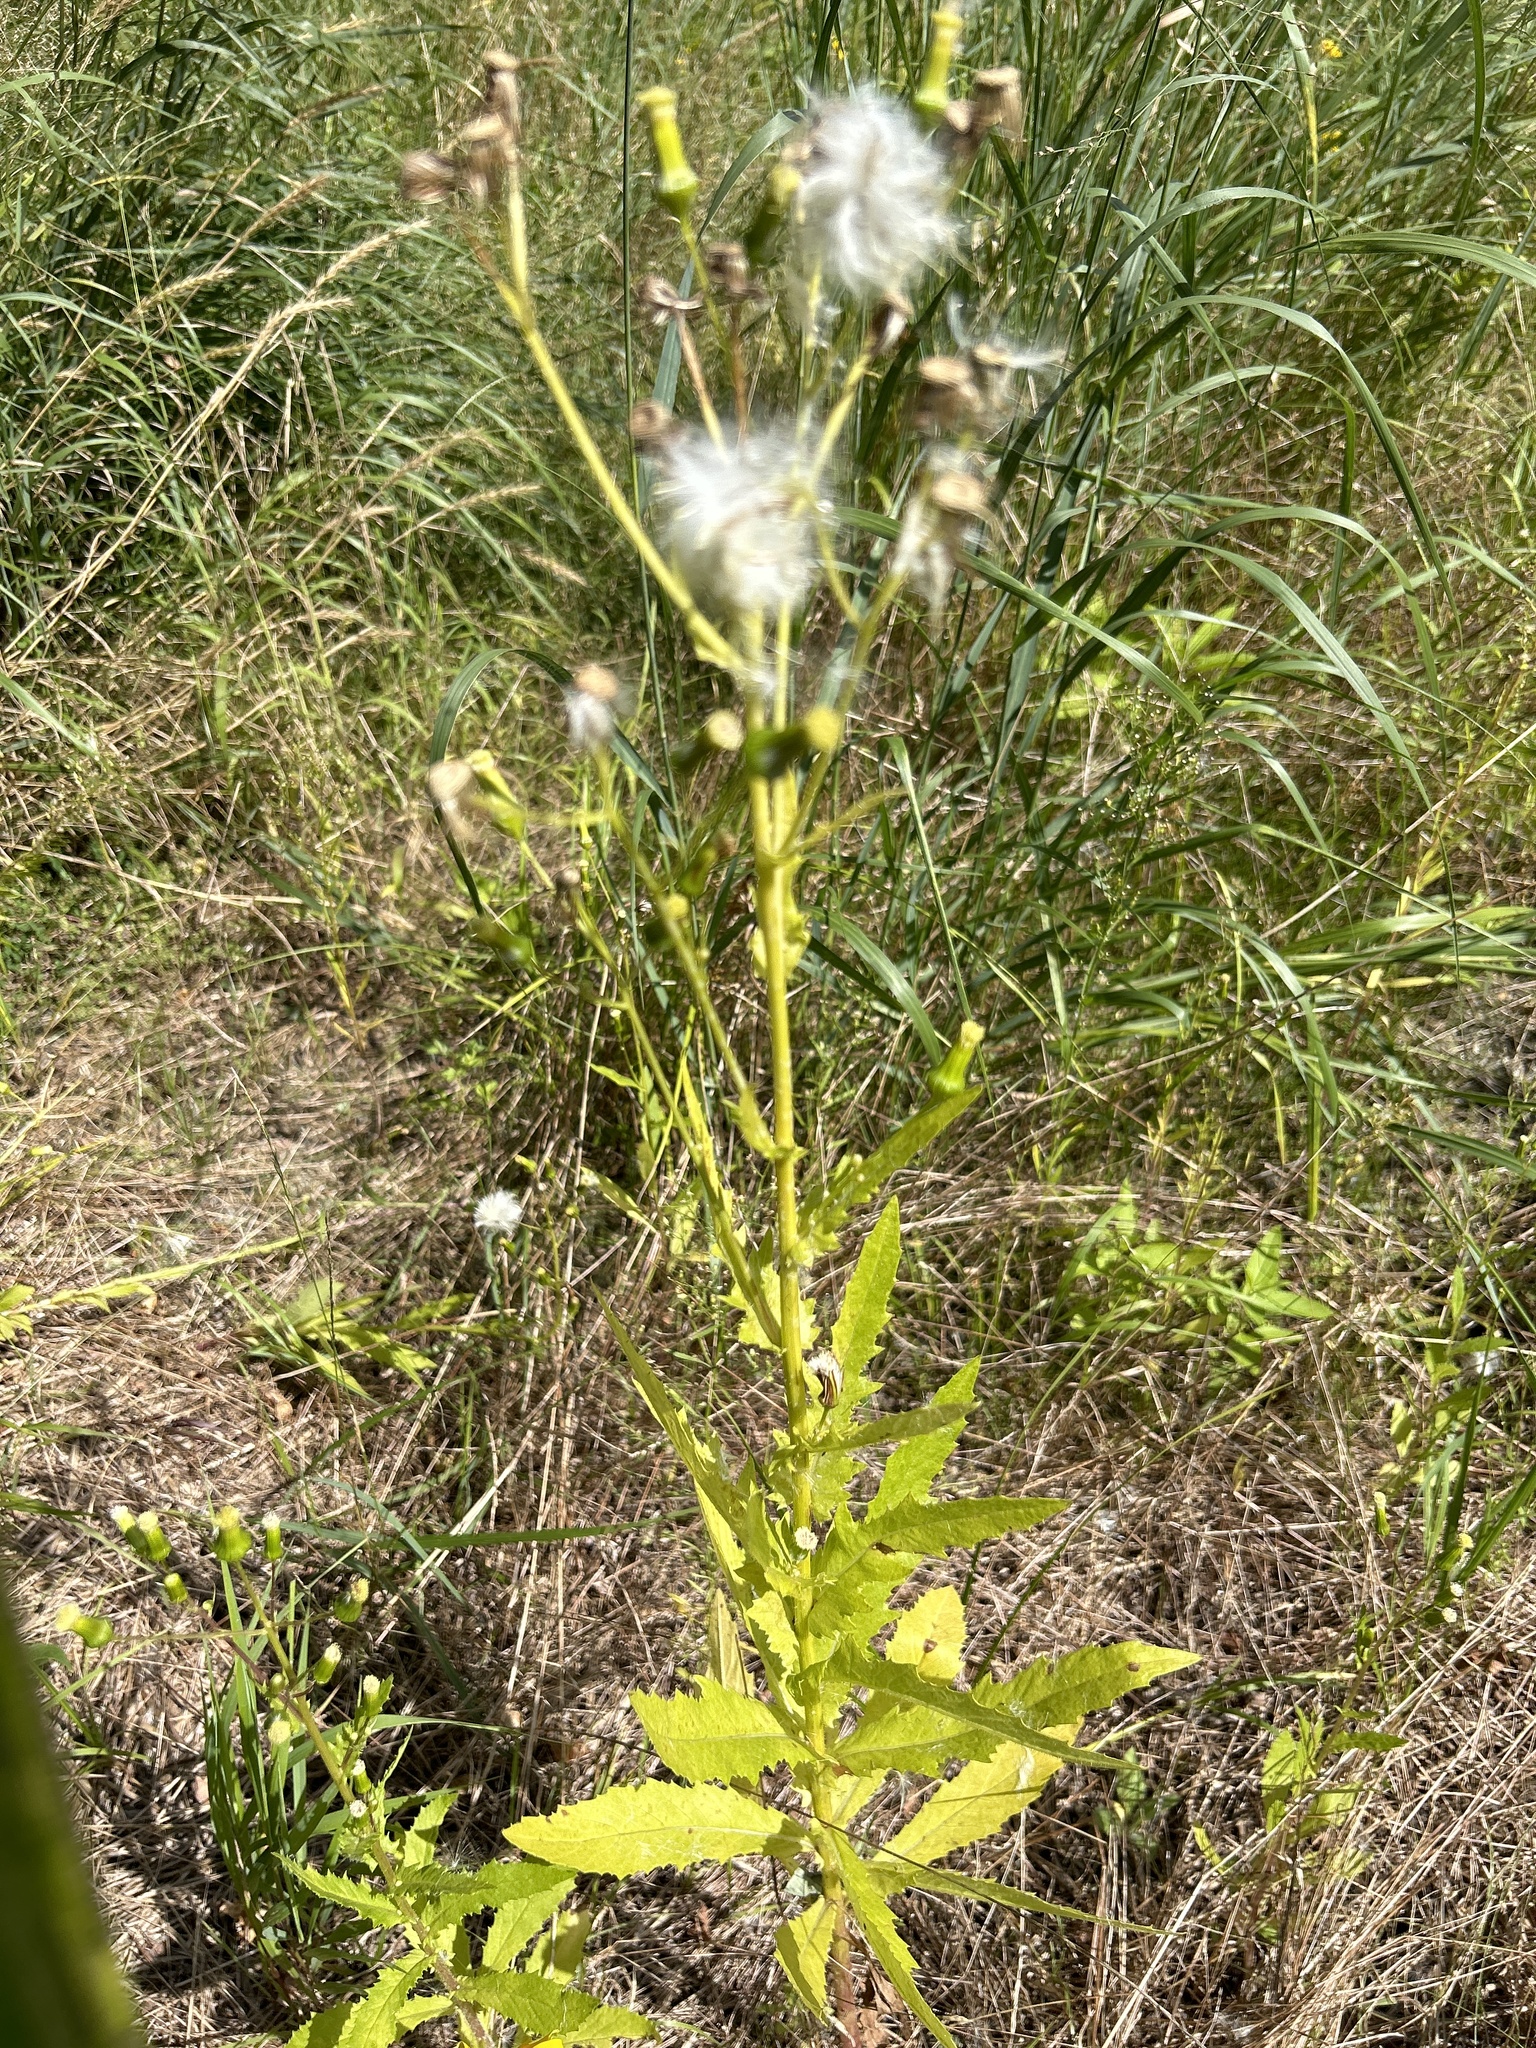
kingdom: Plantae
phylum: Tracheophyta
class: Magnoliopsida
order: Asterales
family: Asteraceae
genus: Erechtites
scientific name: Erechtites hieraciifolius
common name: American burnweed
